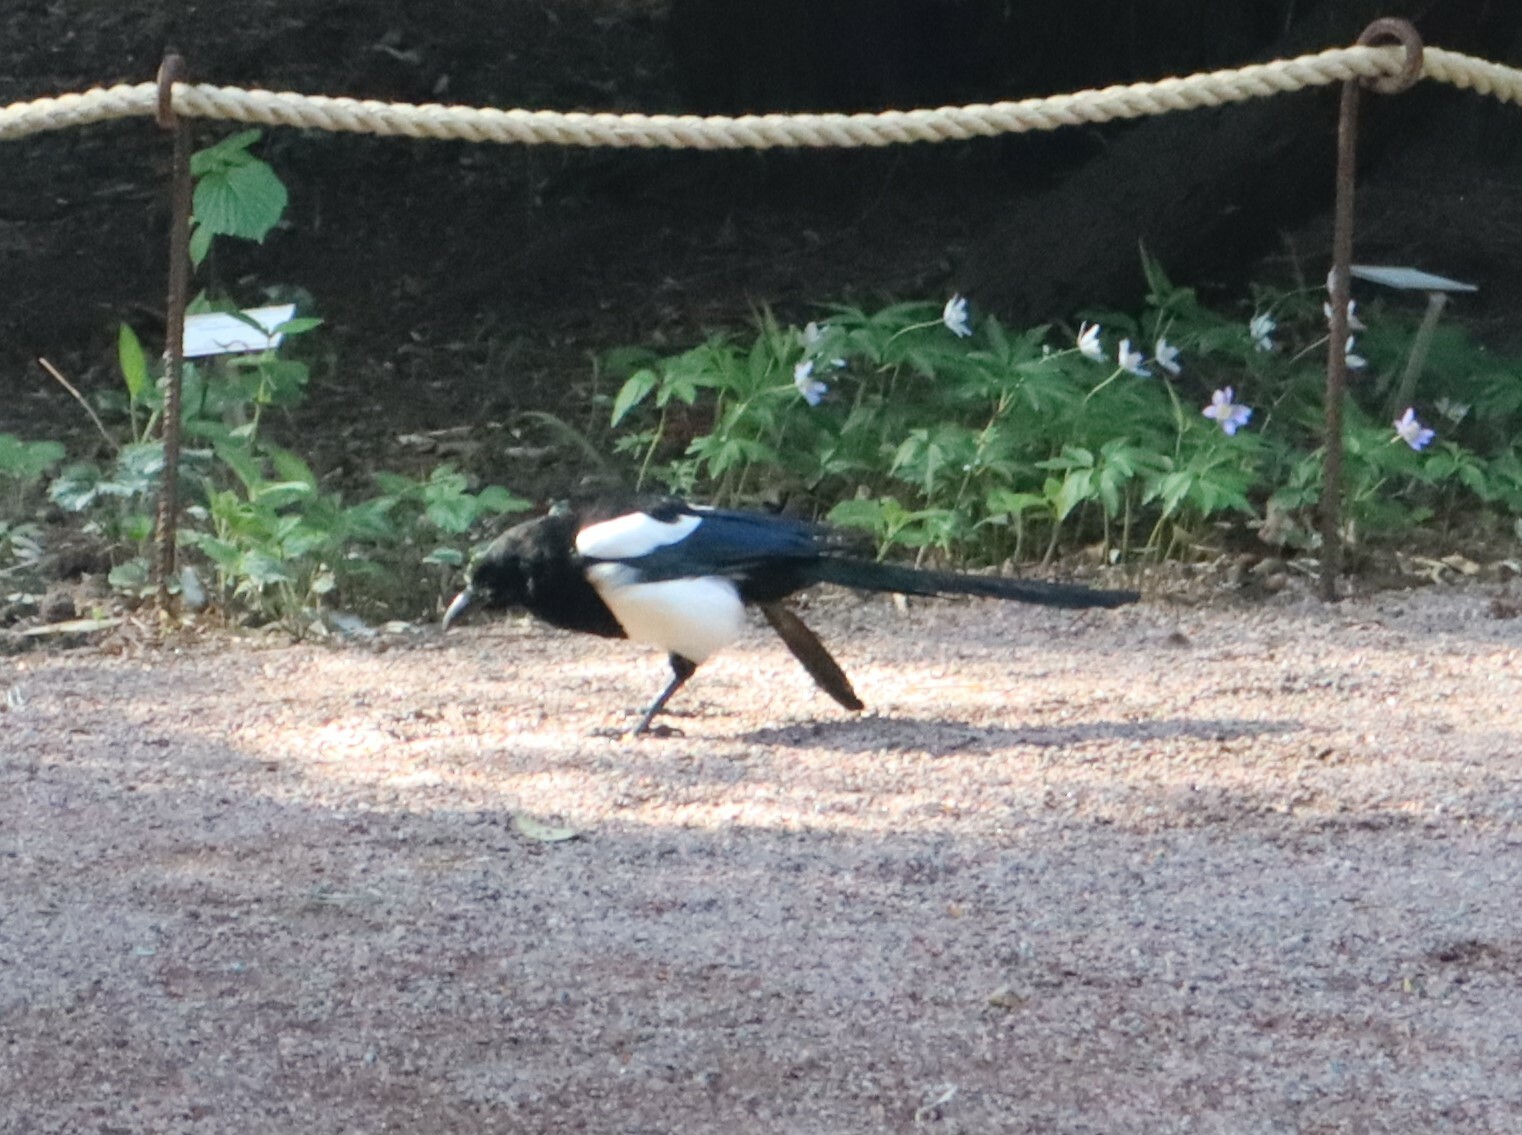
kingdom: Animalia
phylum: Chordata
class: Aves
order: Passeriformes
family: Corvidae
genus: Pica
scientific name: Pica pica
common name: Eurasian magpie
